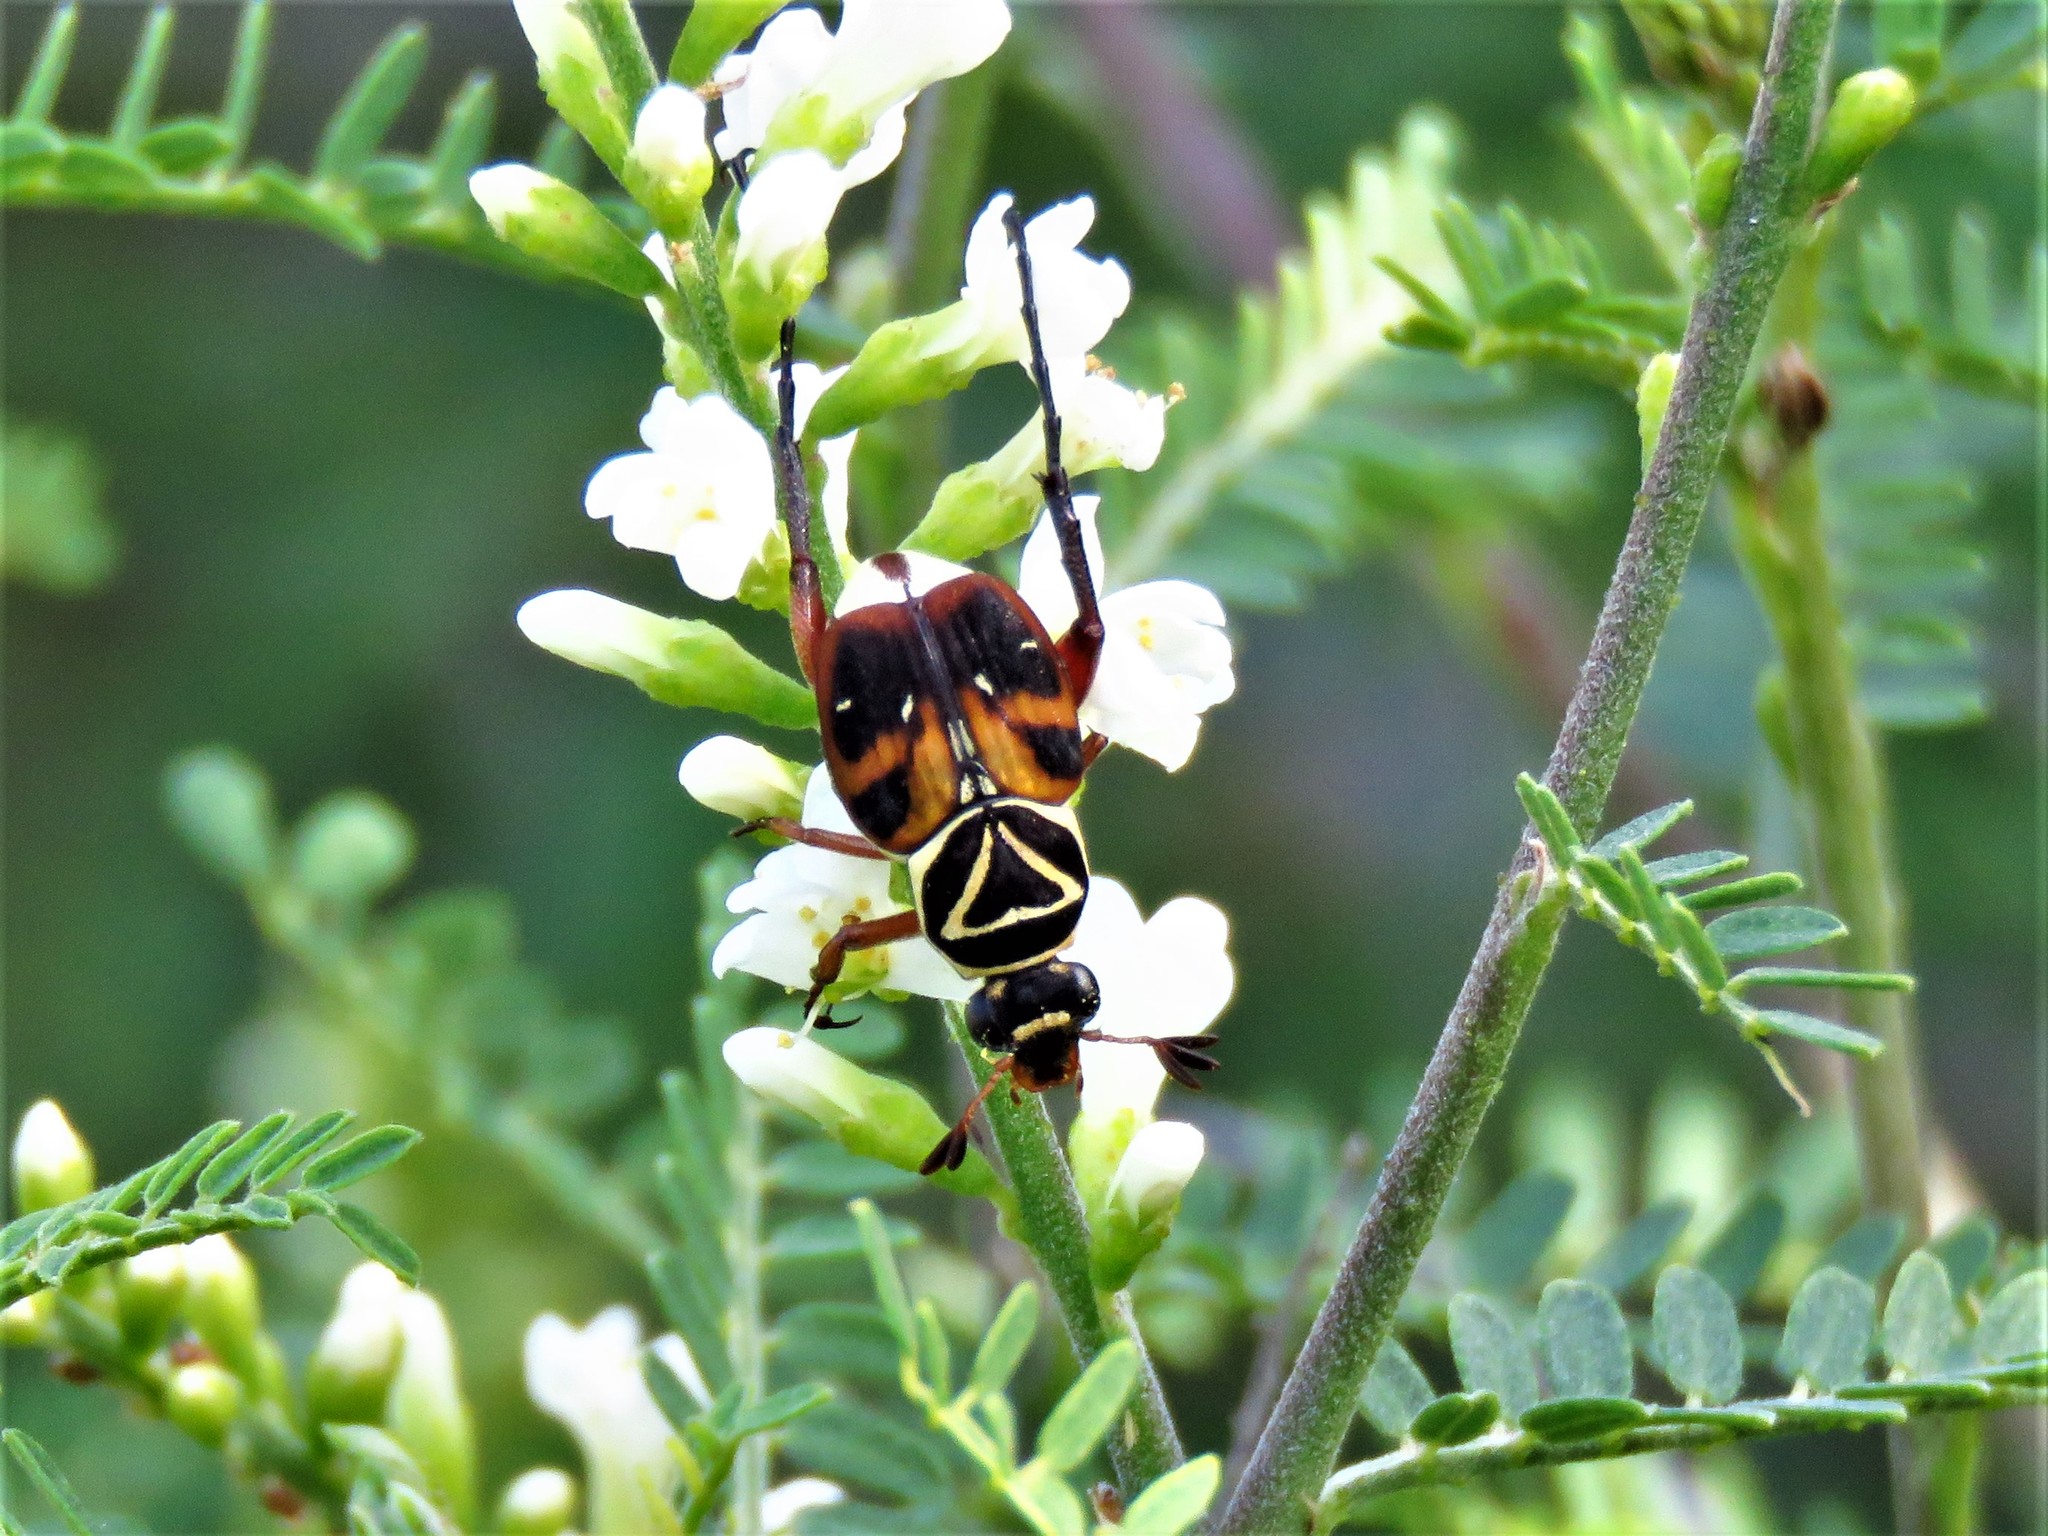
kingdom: Animalia
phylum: Arthropoda
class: Insecta
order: Coleoptera
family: Scarabaeidae
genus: Trigonopeltastes
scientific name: Trigonopeltastes delta
